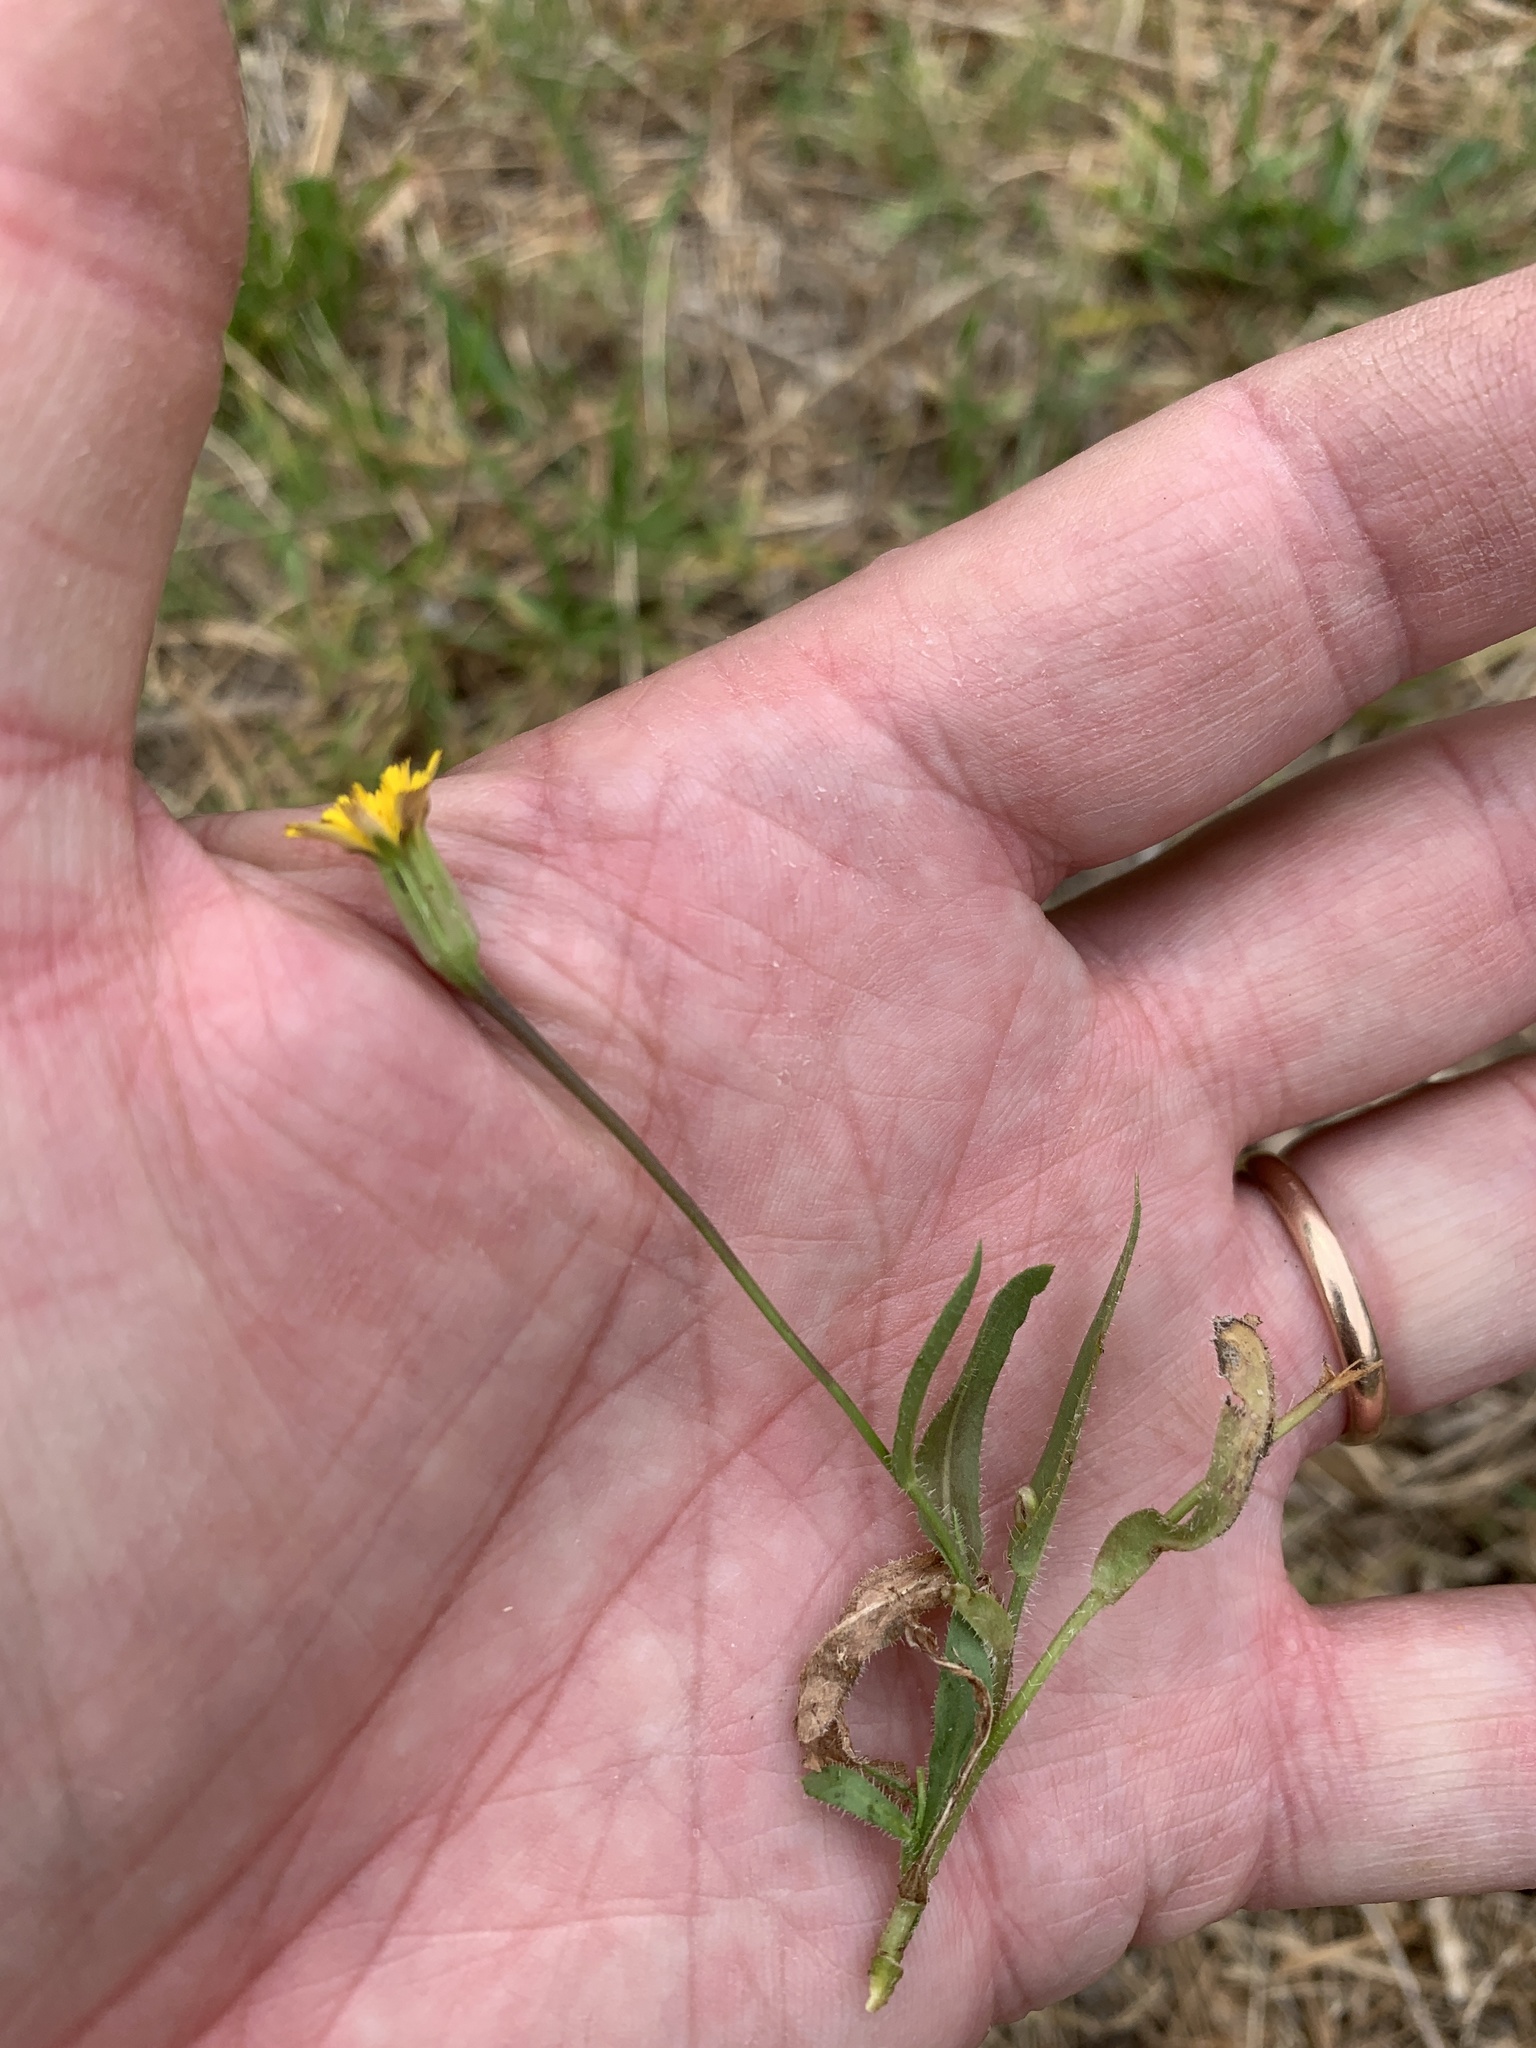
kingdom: Plantae
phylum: Tracheophyta
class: Magnoliopsida
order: Asterales
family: Asteraceae
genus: Hedypnois
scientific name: Hedypnois rhagadioloides
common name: Cretan weed
